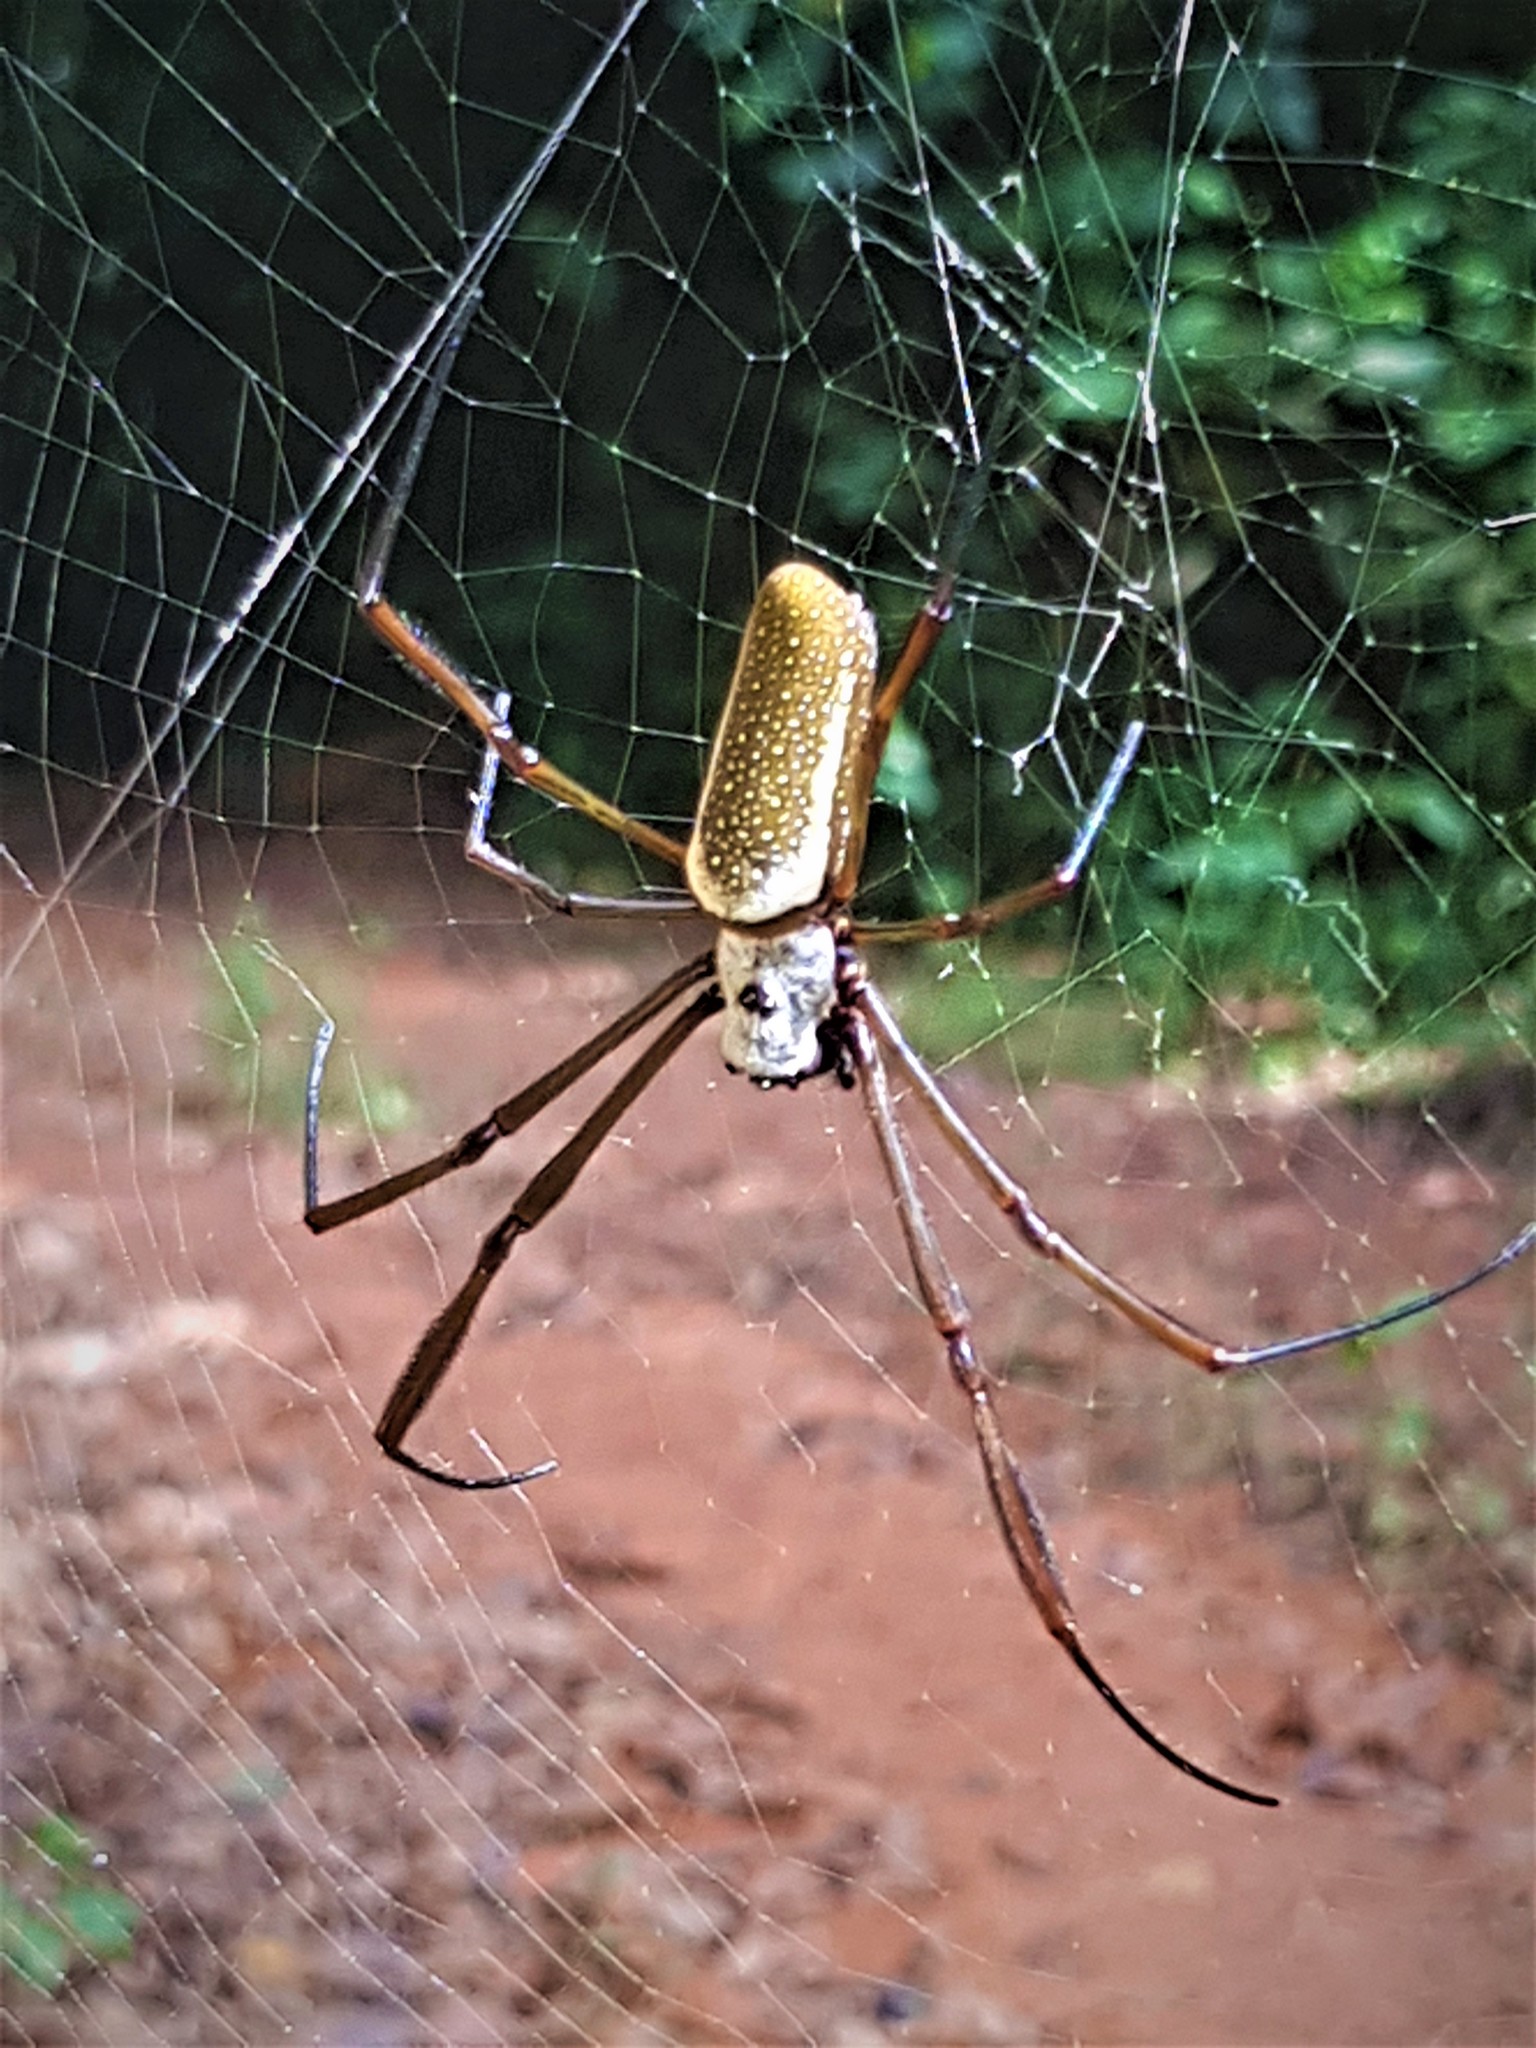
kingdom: Animalia
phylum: Arthropoda
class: Arachnida
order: Araneae
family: Araneidae
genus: Nephila
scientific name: Nephila cornuta
